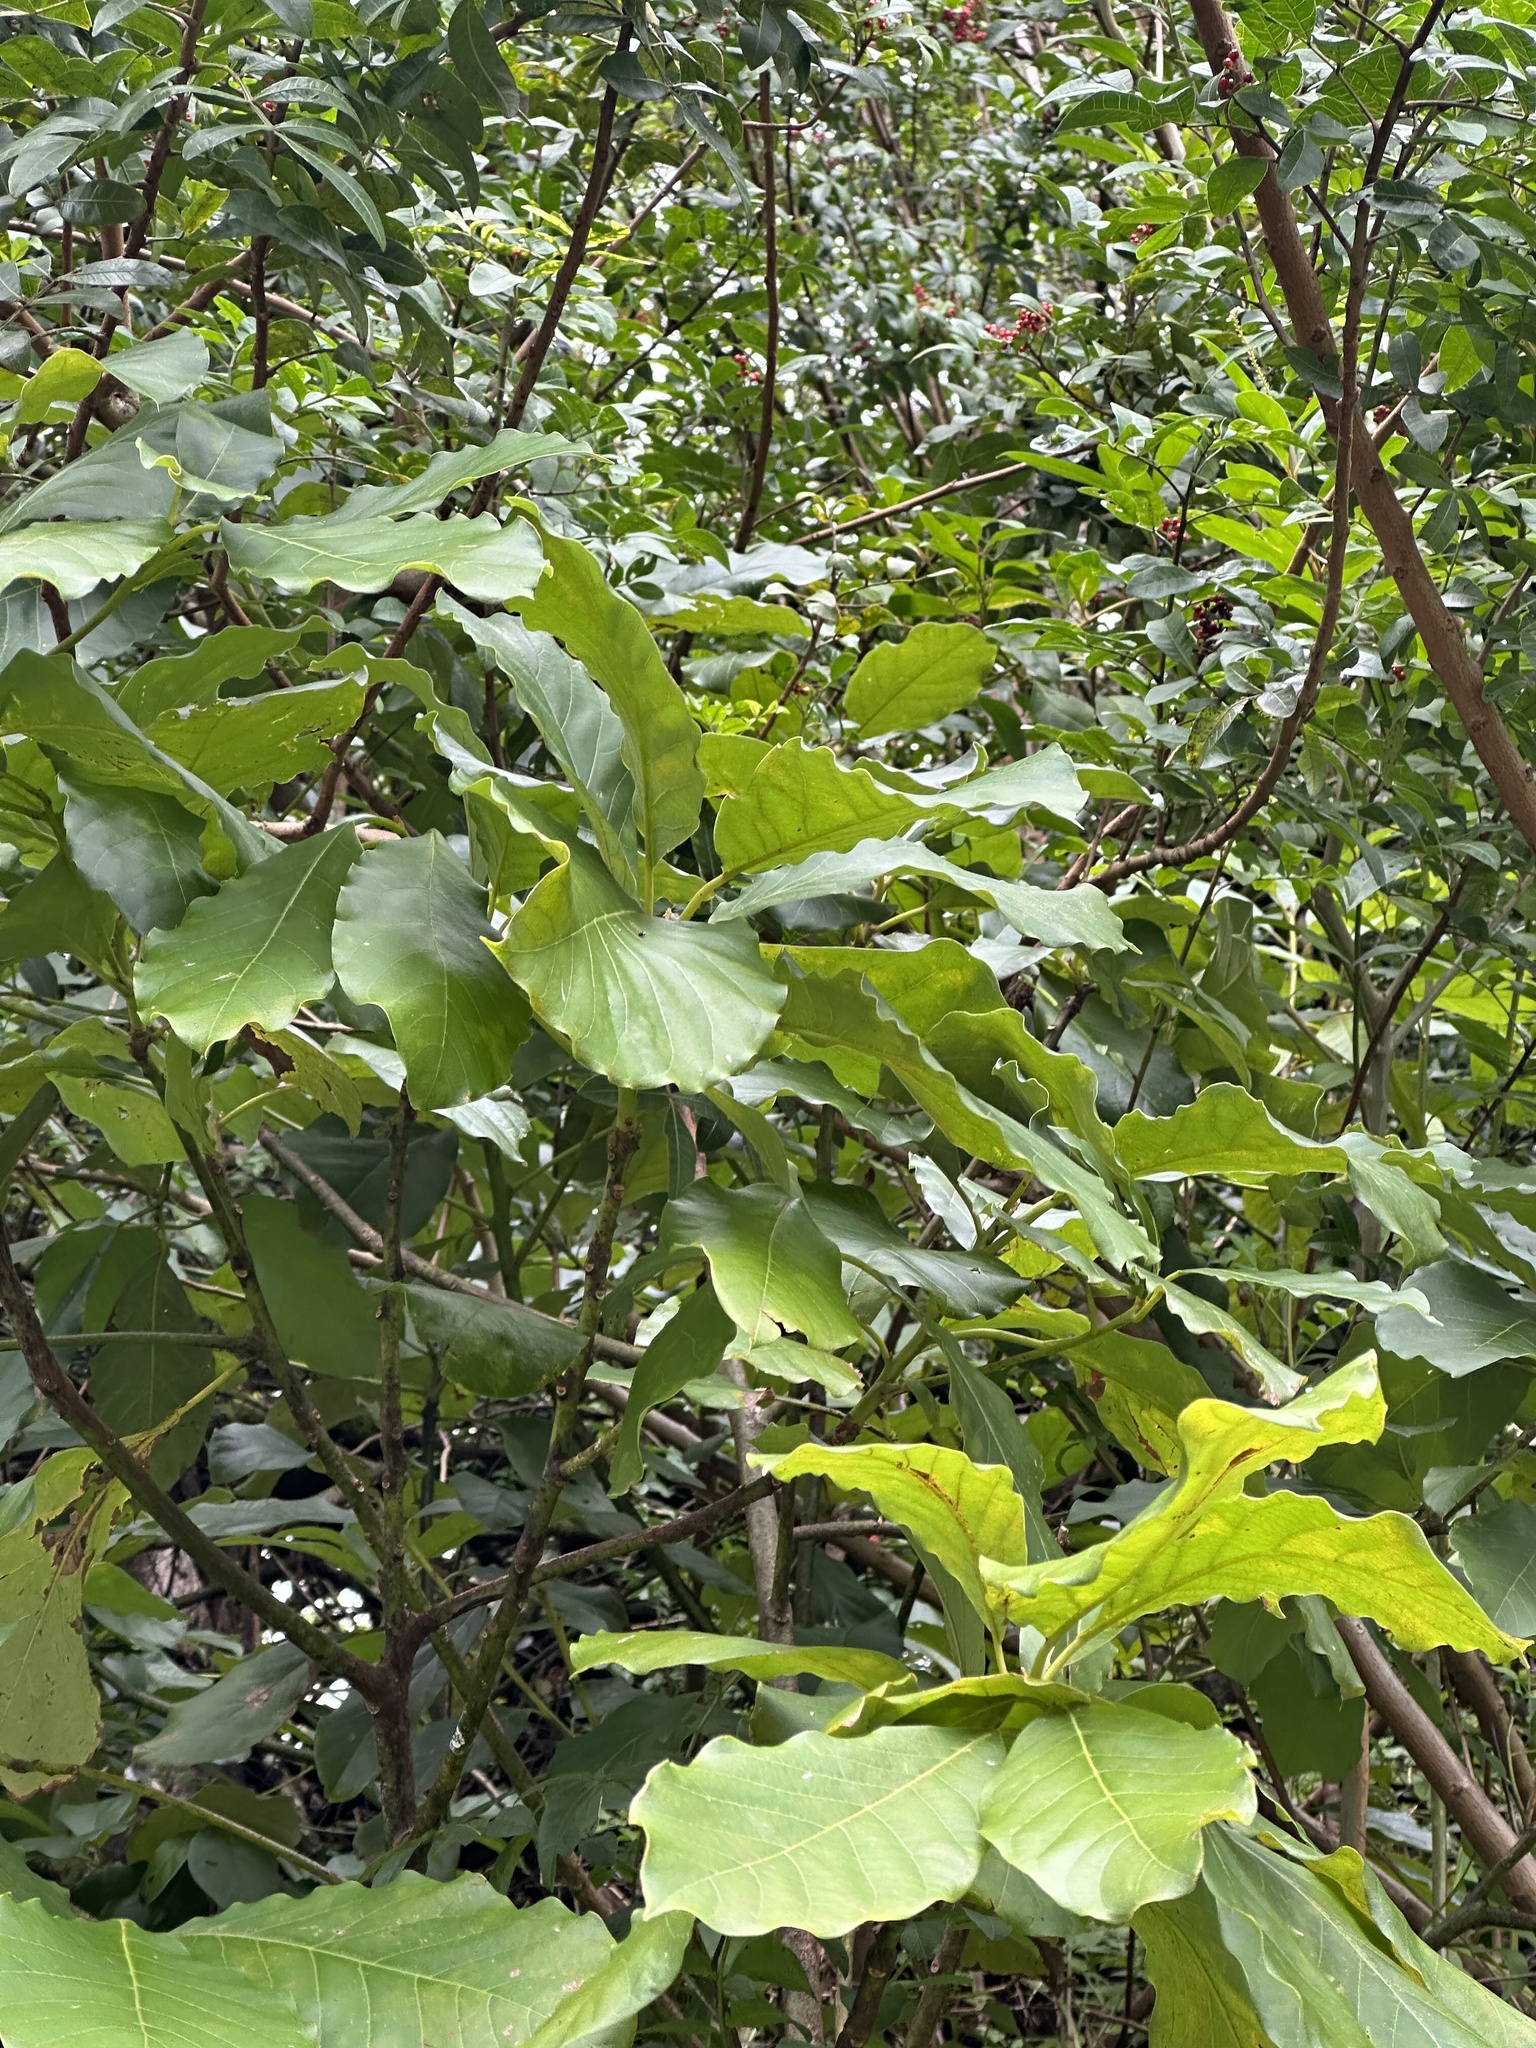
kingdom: Plantae
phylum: Tracheophyta
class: Magnoliopsida
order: Lamiales
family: Lamiaceae
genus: Tectona
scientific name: Tectona grandis
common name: Teak
